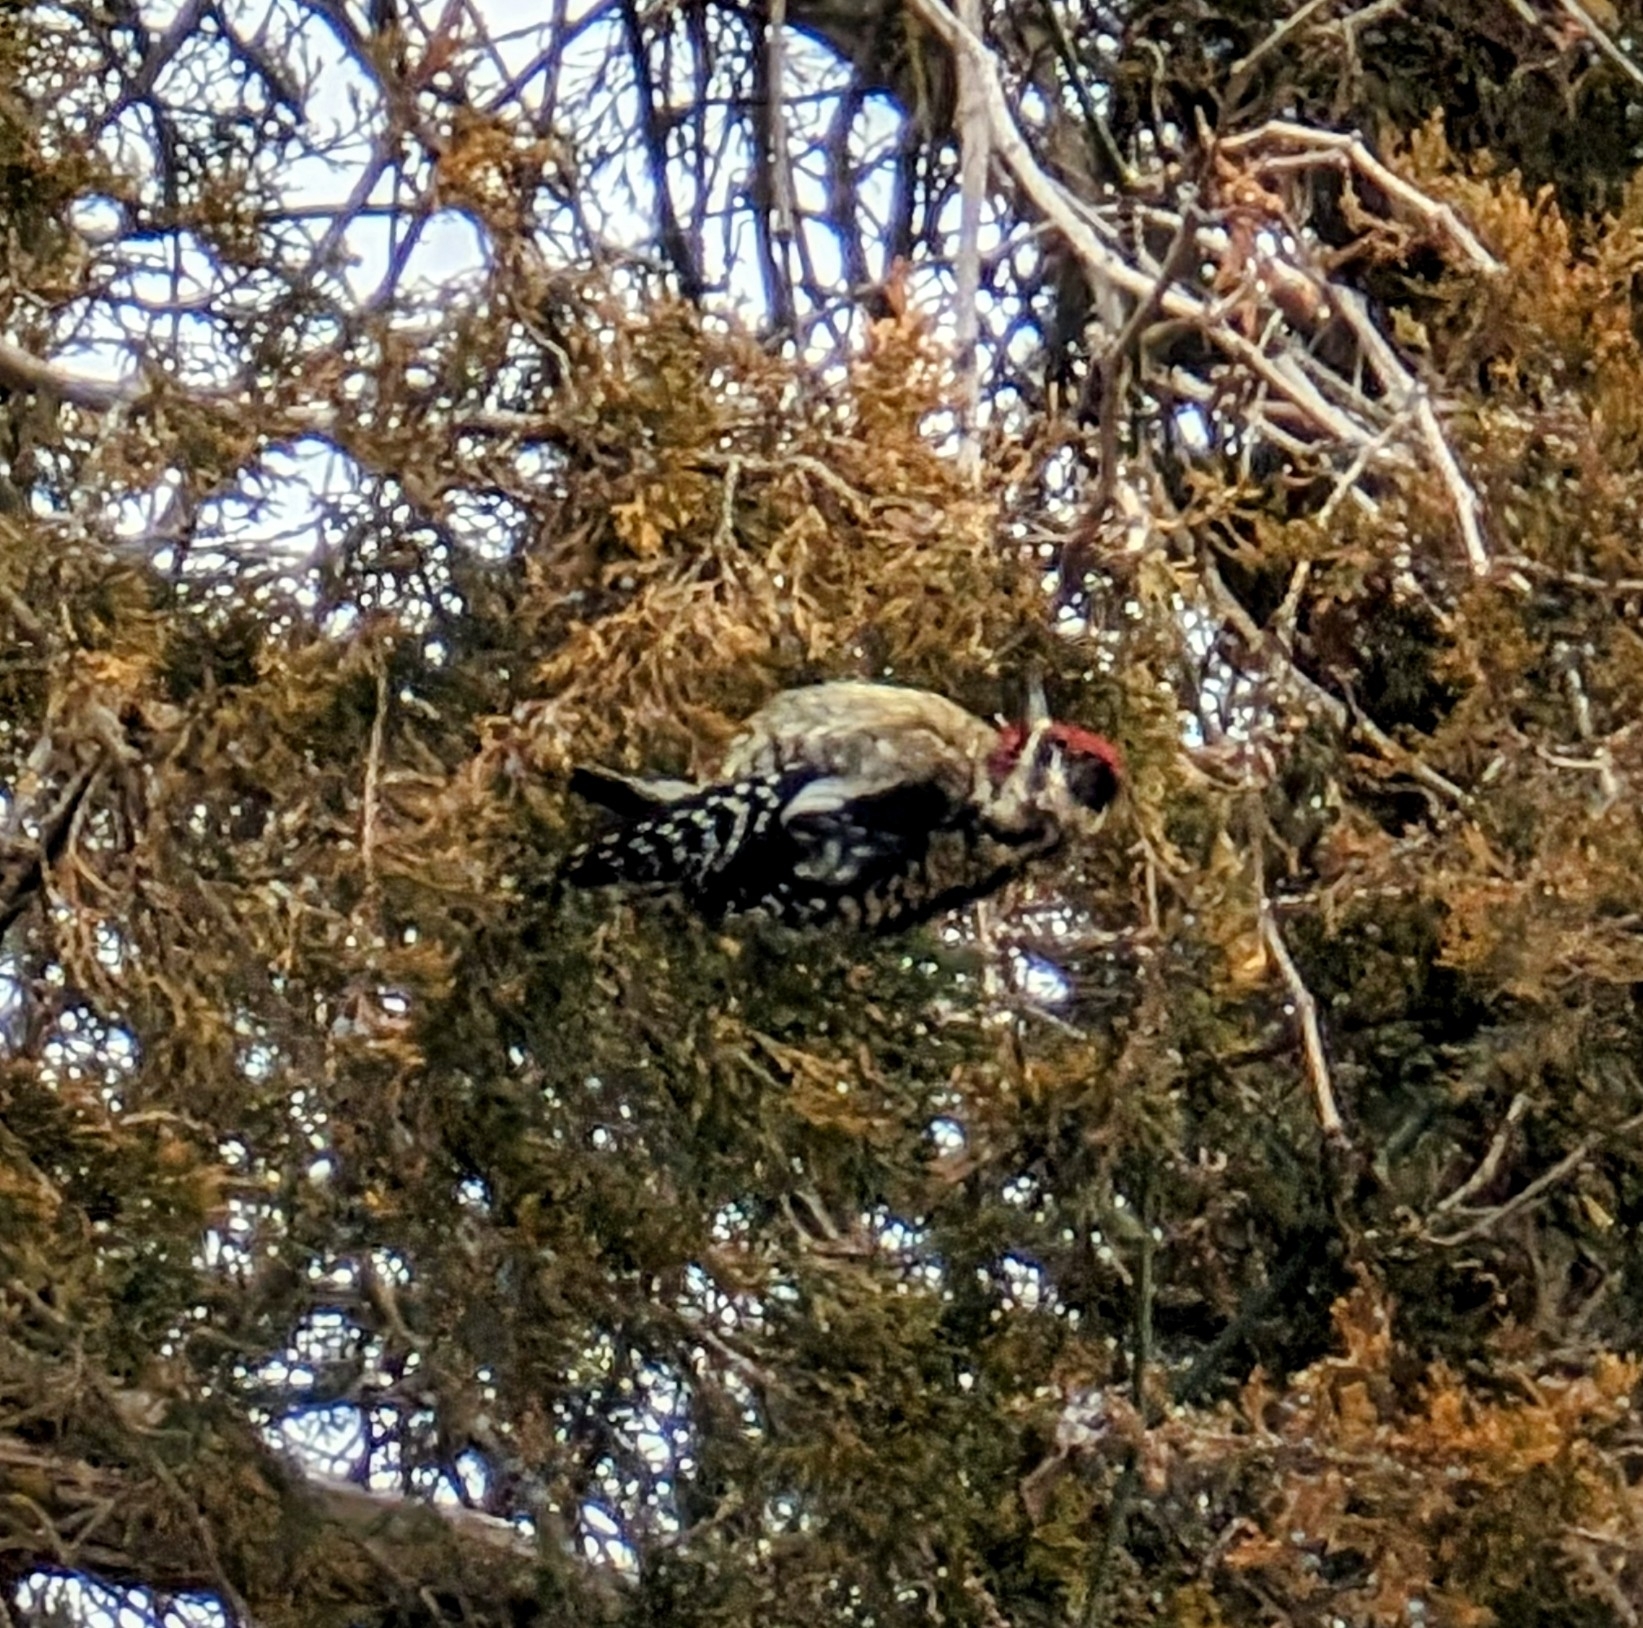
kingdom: Animalia
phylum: Chordata
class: Aves
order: Piciformes
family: Picidae
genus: Sphyrapicus
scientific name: Sphyrapicus varius
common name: Yellow-bellied sapsucker
